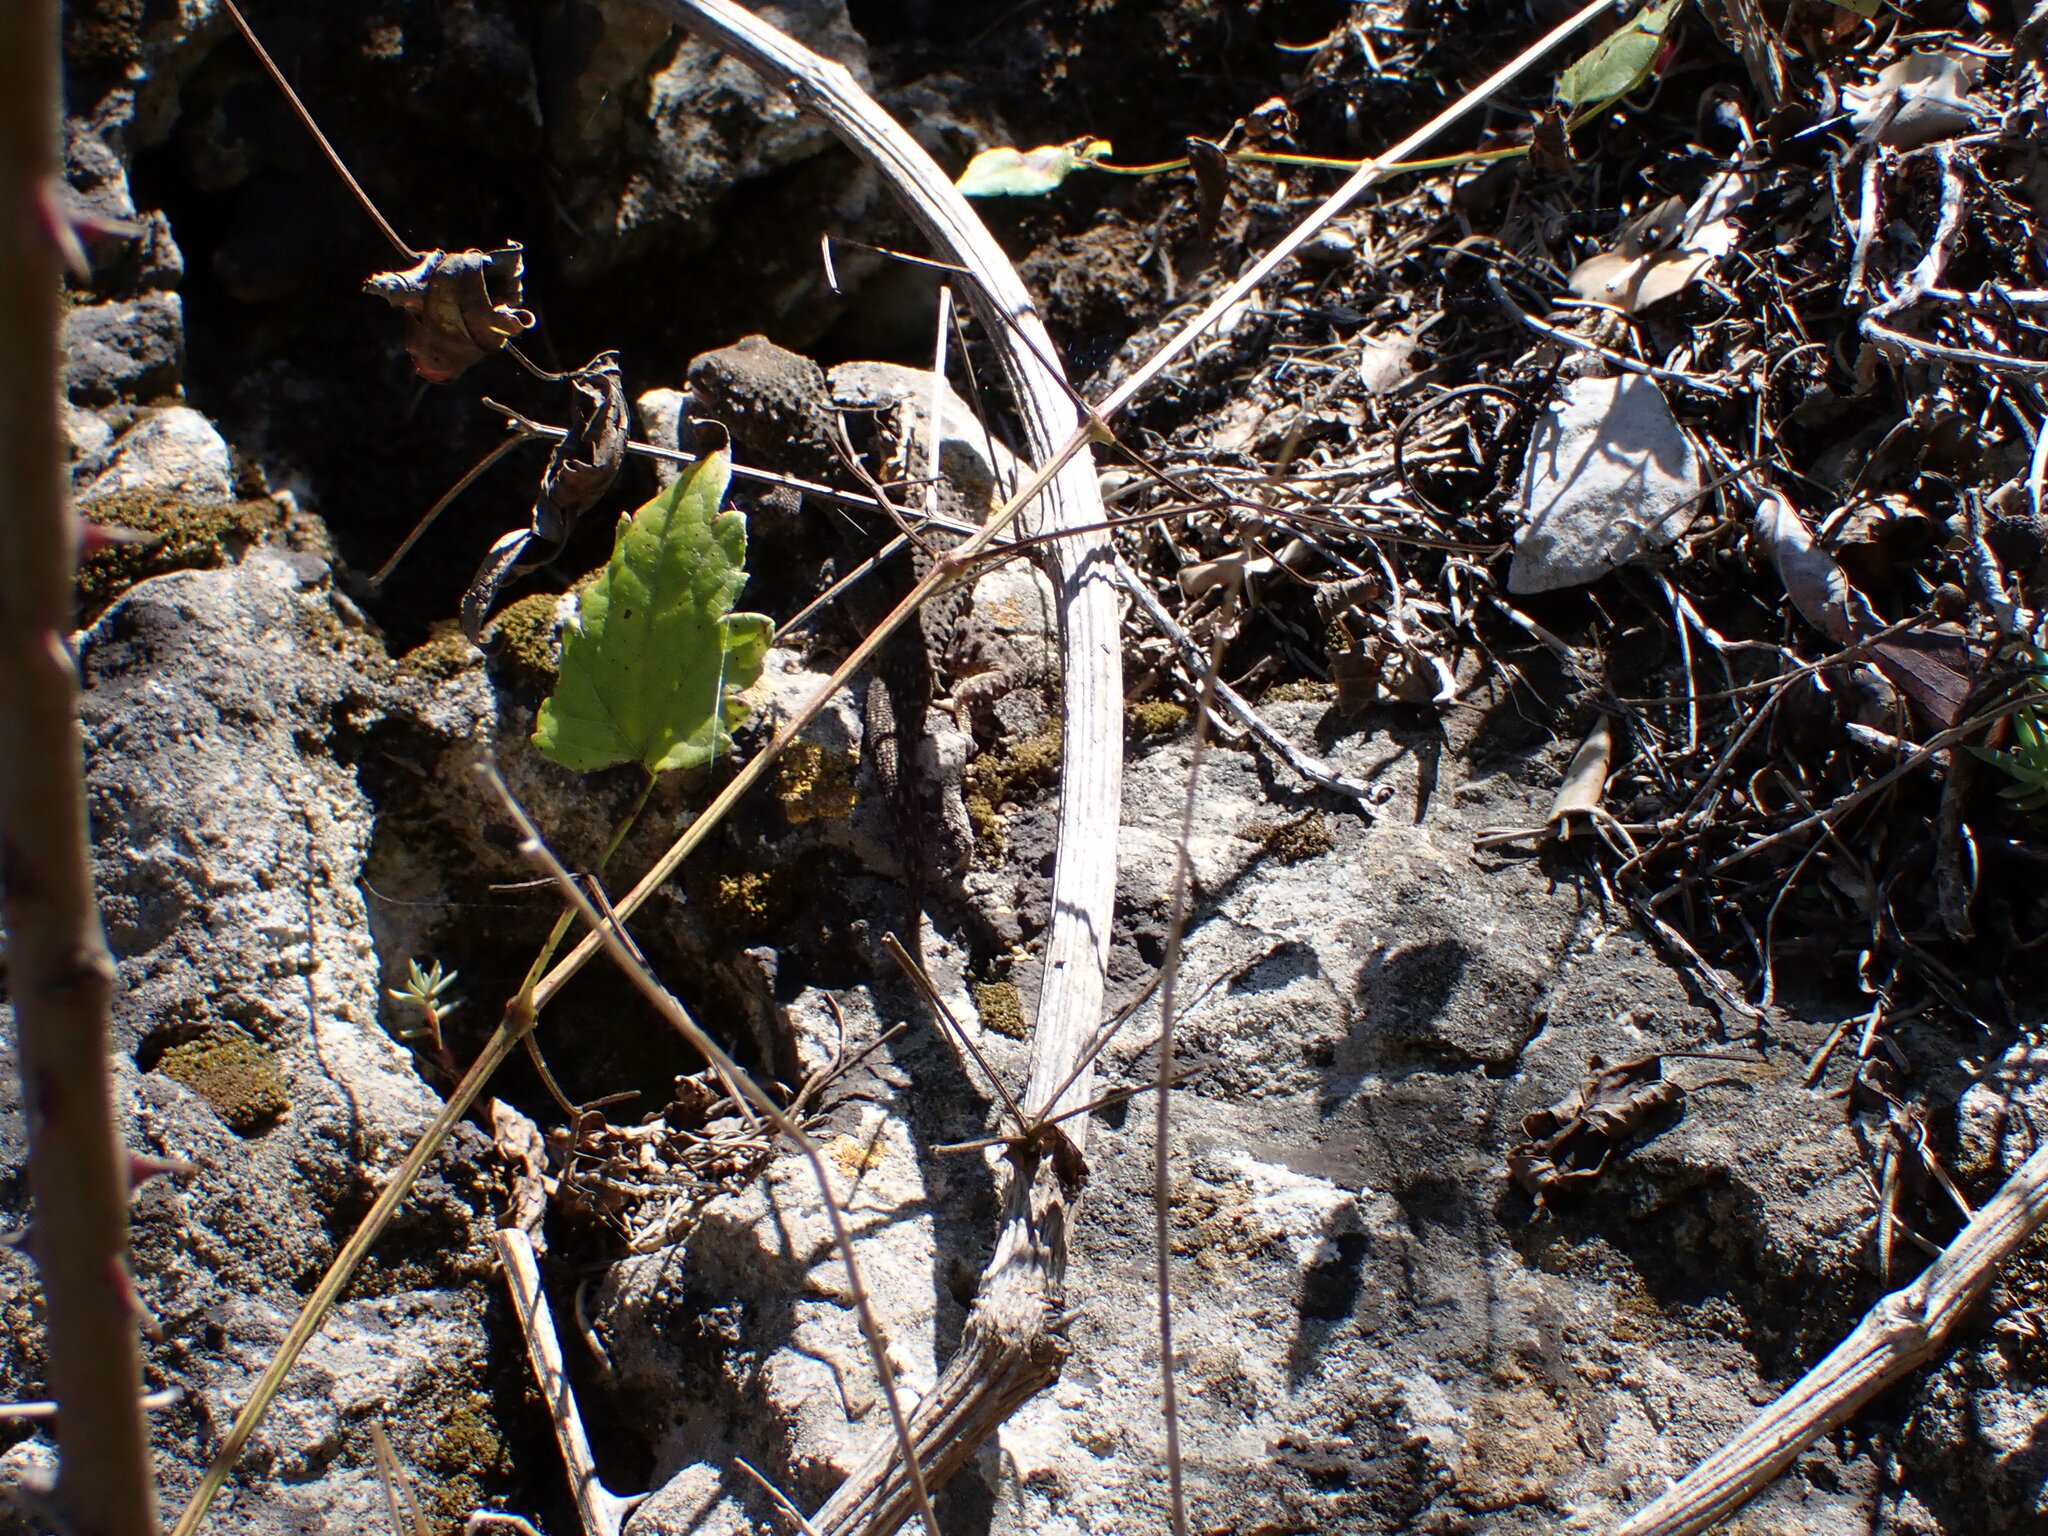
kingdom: Animalia
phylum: Chordata
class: Squamata
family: Phyllodactylidae
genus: Tarentola
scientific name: Tarentola mauritanica
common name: Moorish gecko
